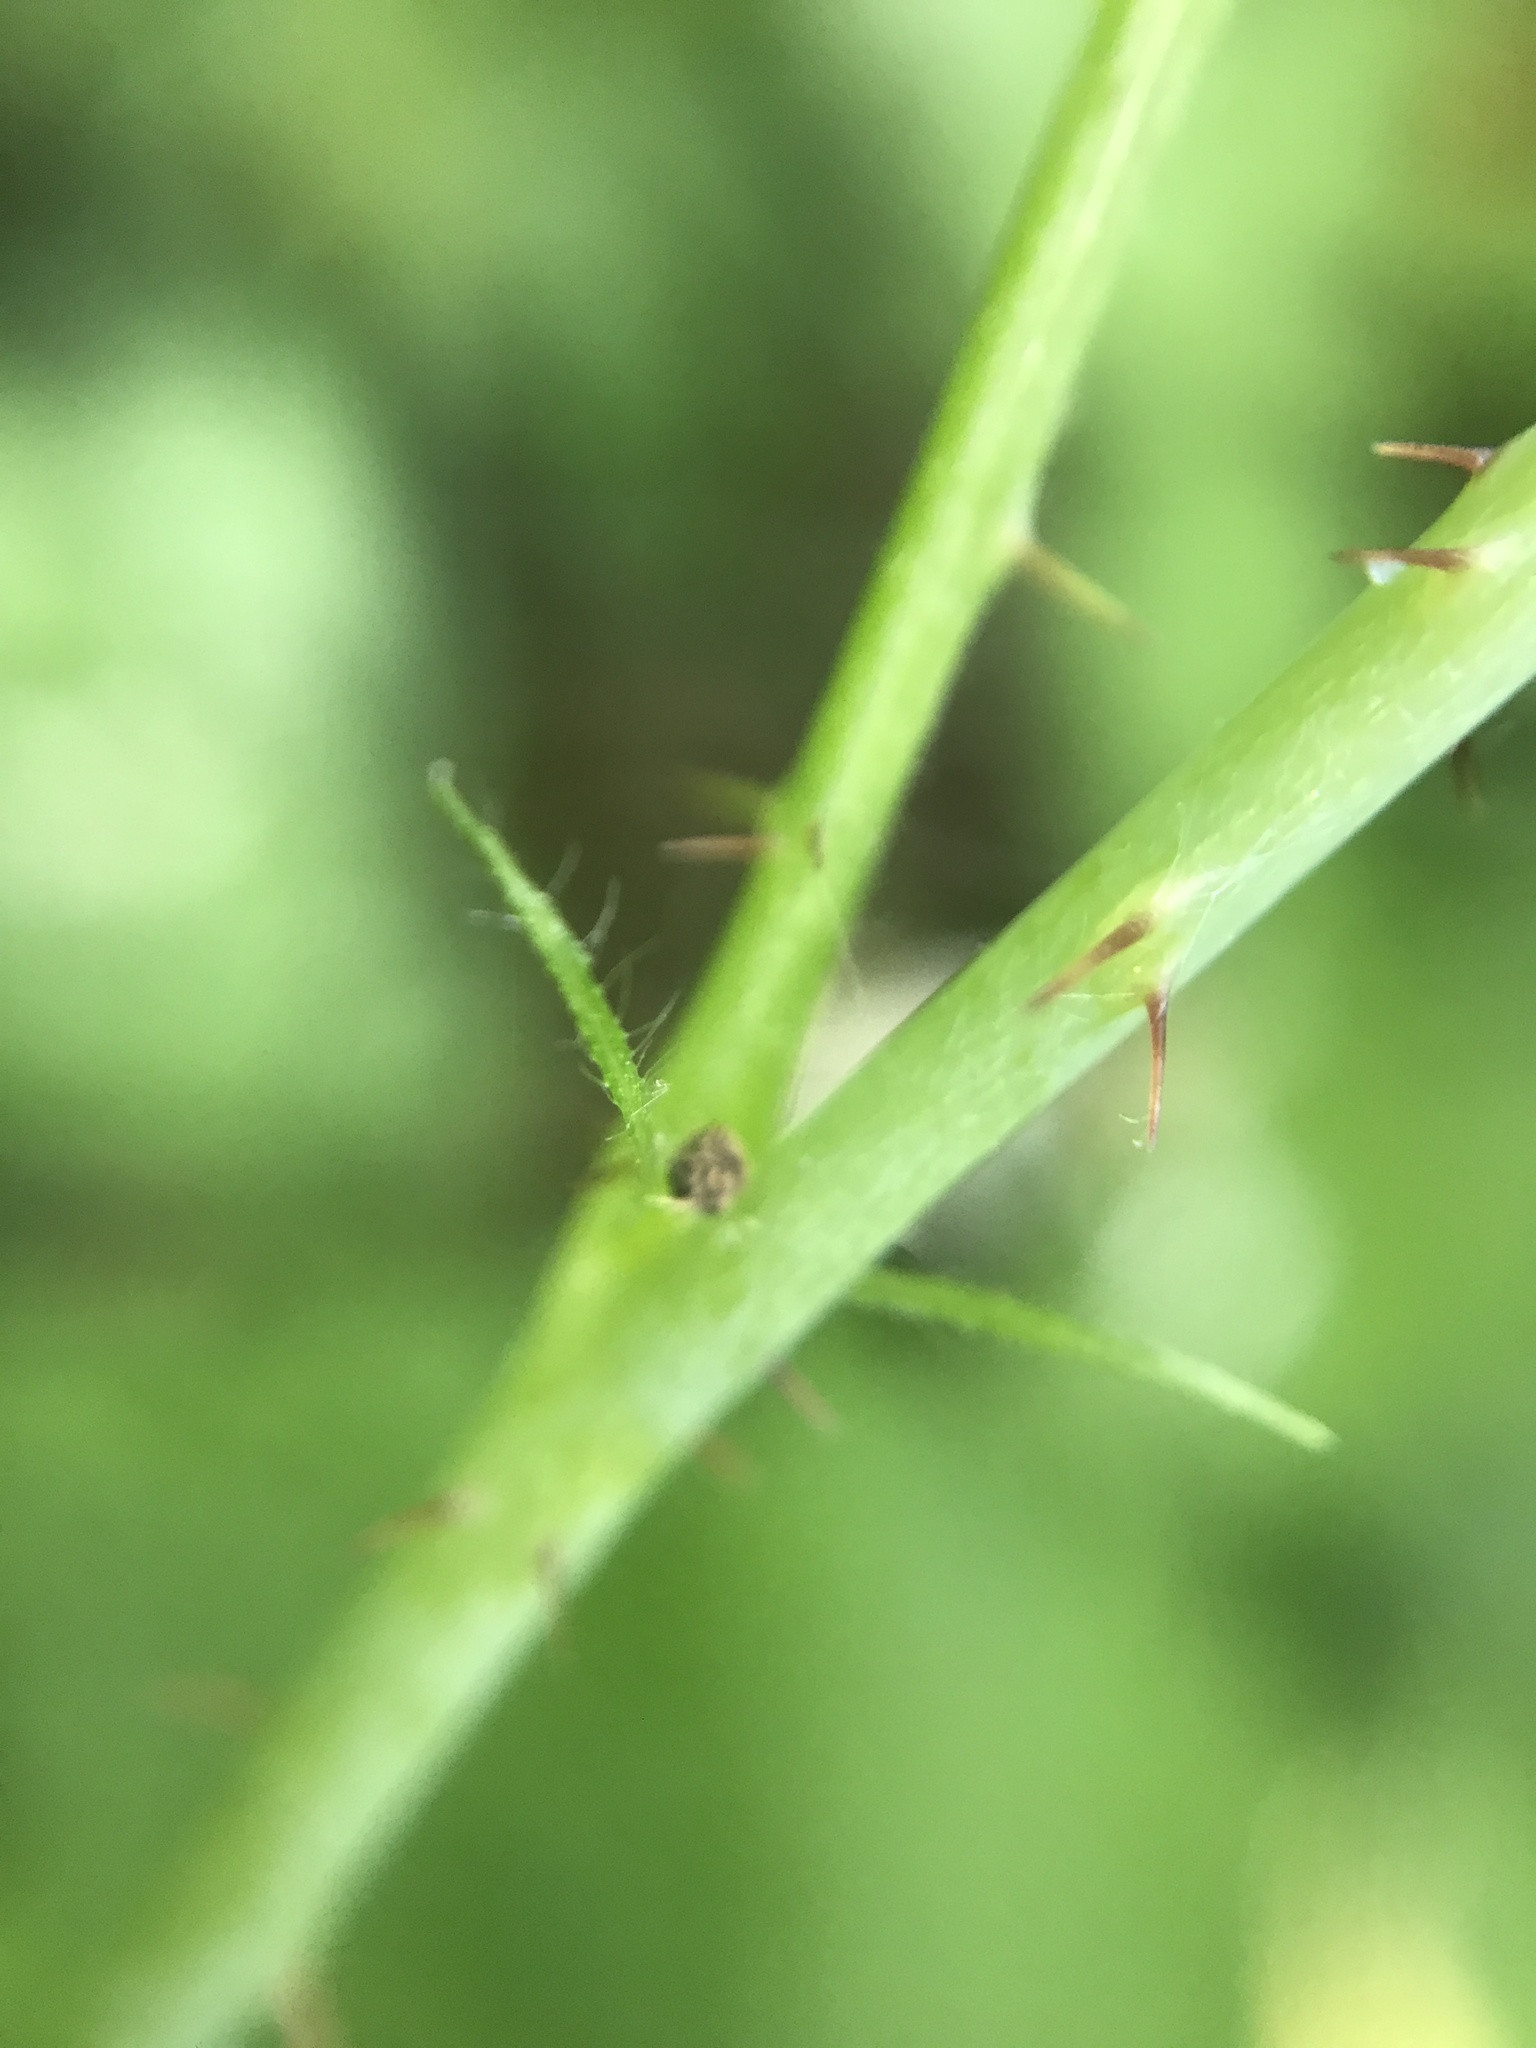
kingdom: Plantae
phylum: Tracheophyta
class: Magnoliopsida
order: Rosales
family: Rosaceae
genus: Rubus
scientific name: Rubus ursinus
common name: Pacific blackberry
